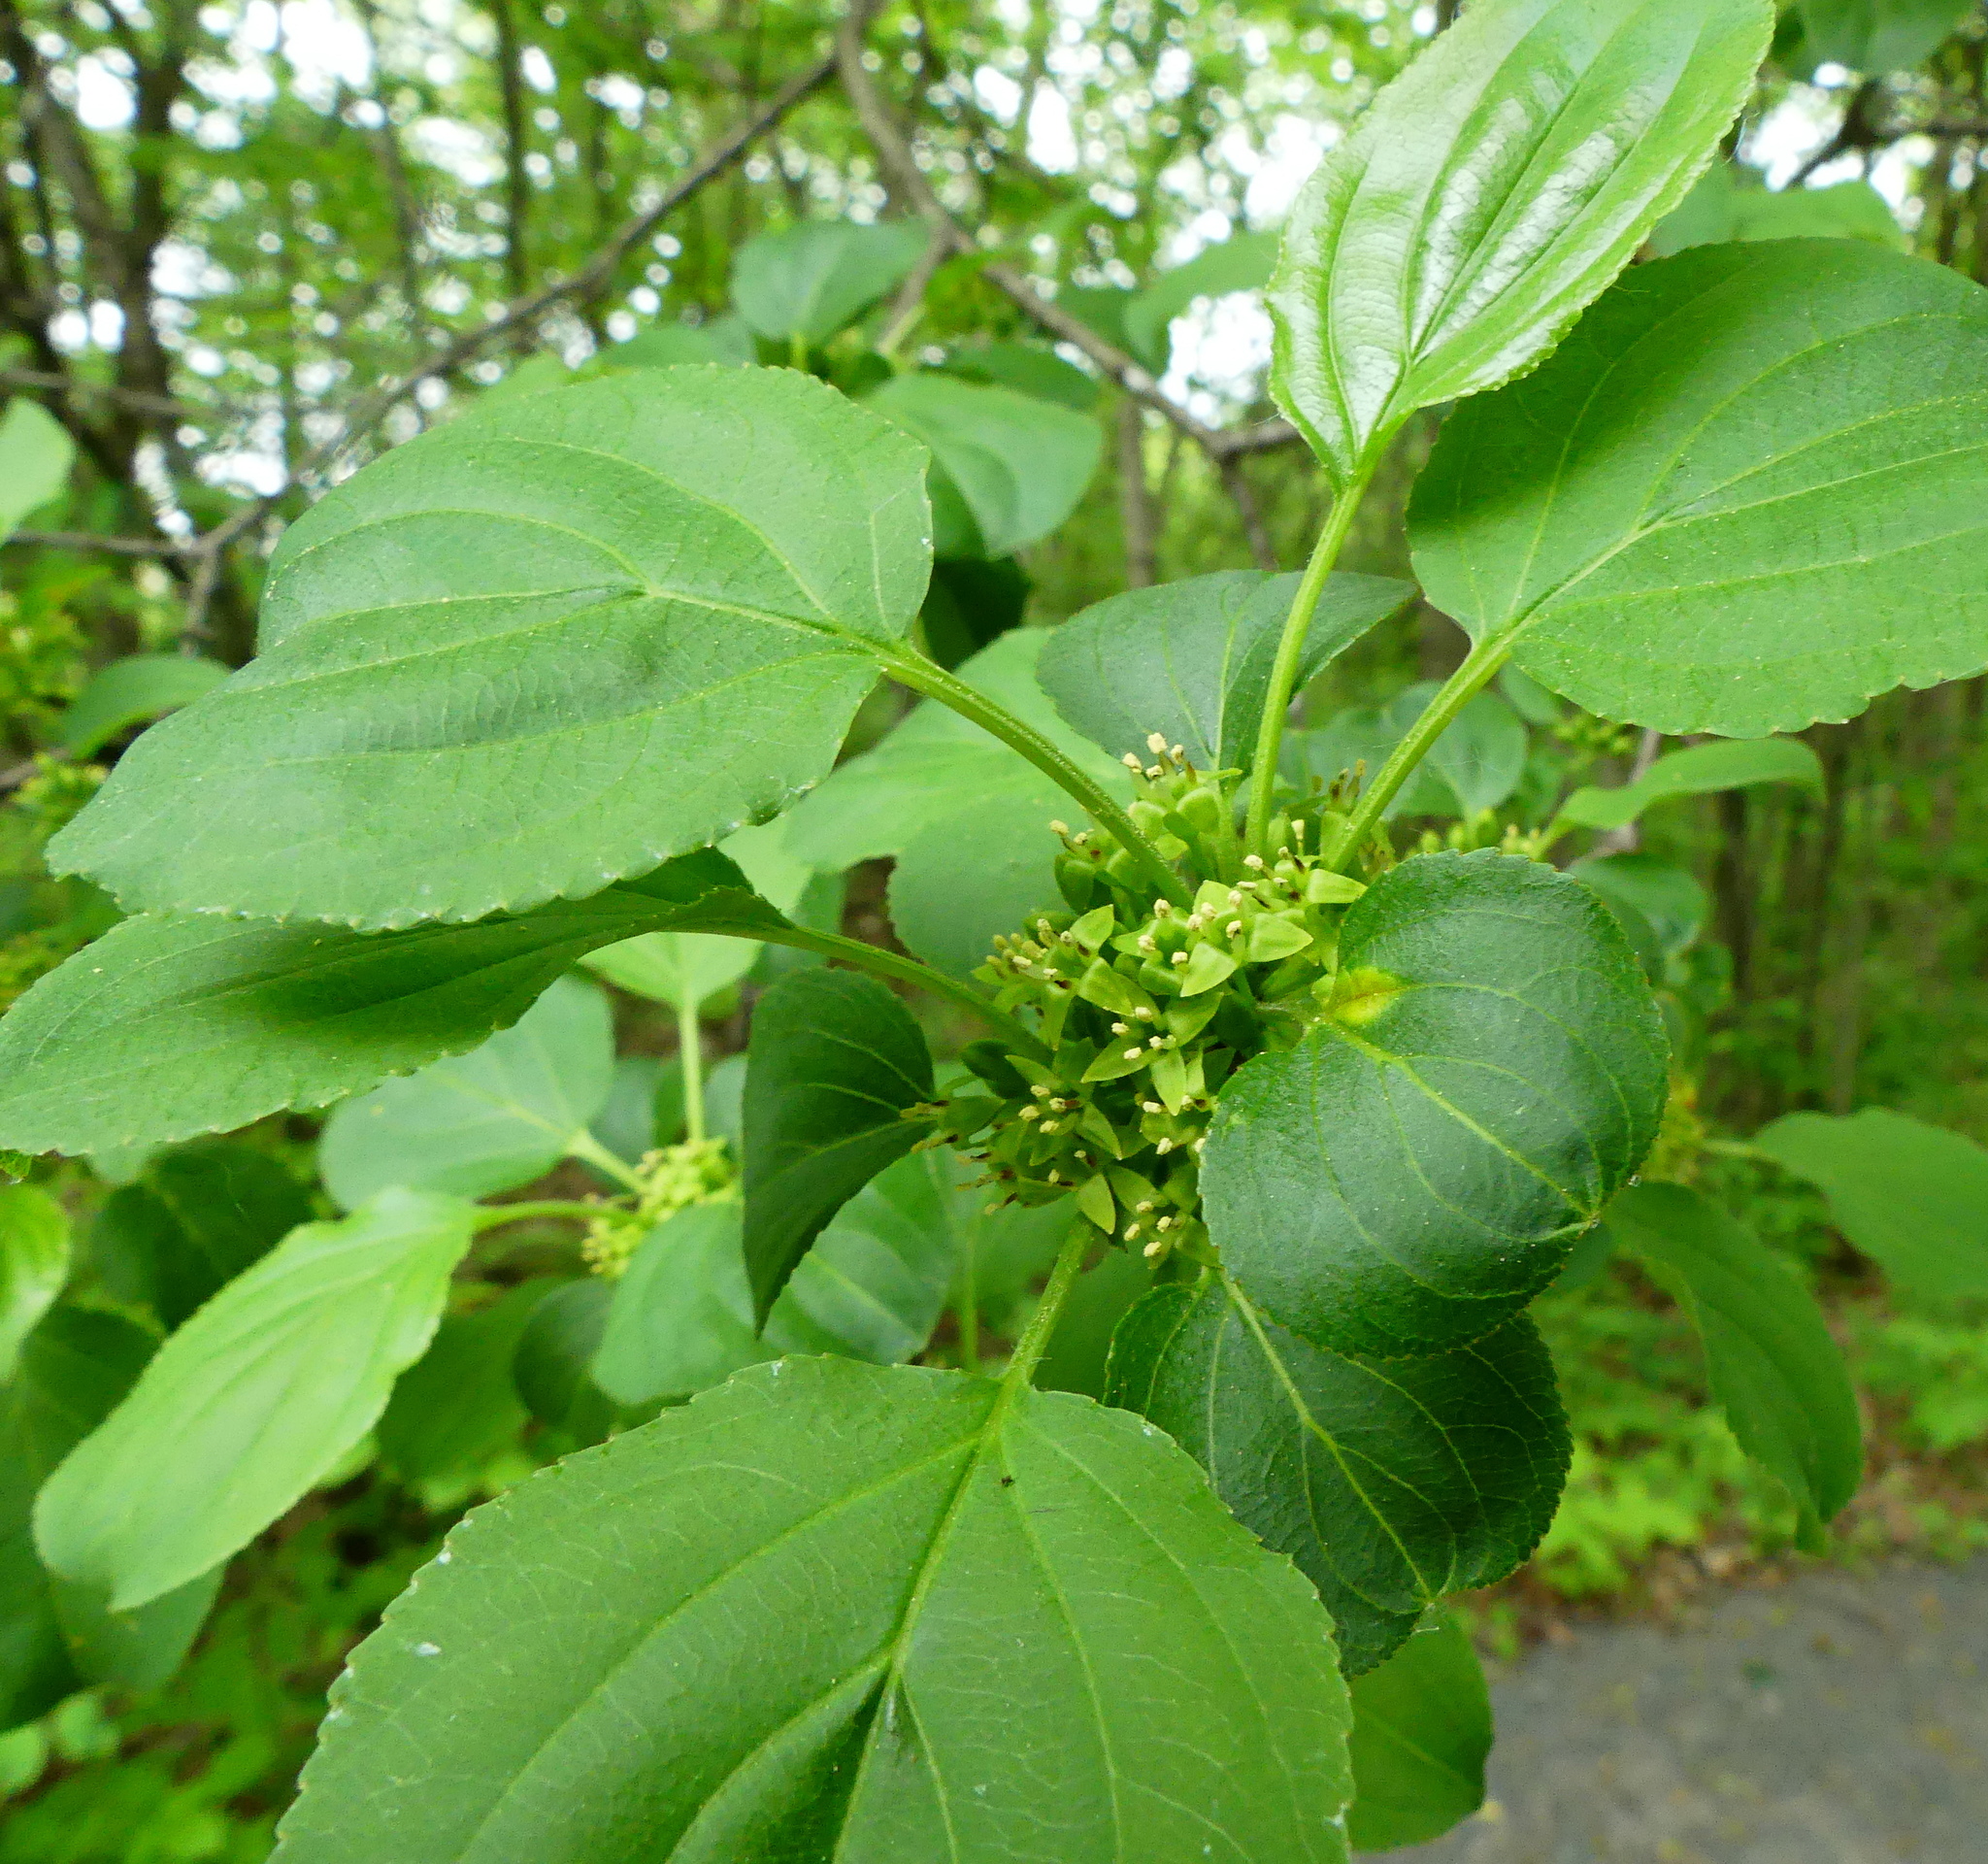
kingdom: Plantae
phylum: Tracheophyta
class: Magnoliopsida
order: Rosales
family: Rhamnaceae
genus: Rhamnus
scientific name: Rhamnus cathartica
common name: Common buckthorn
